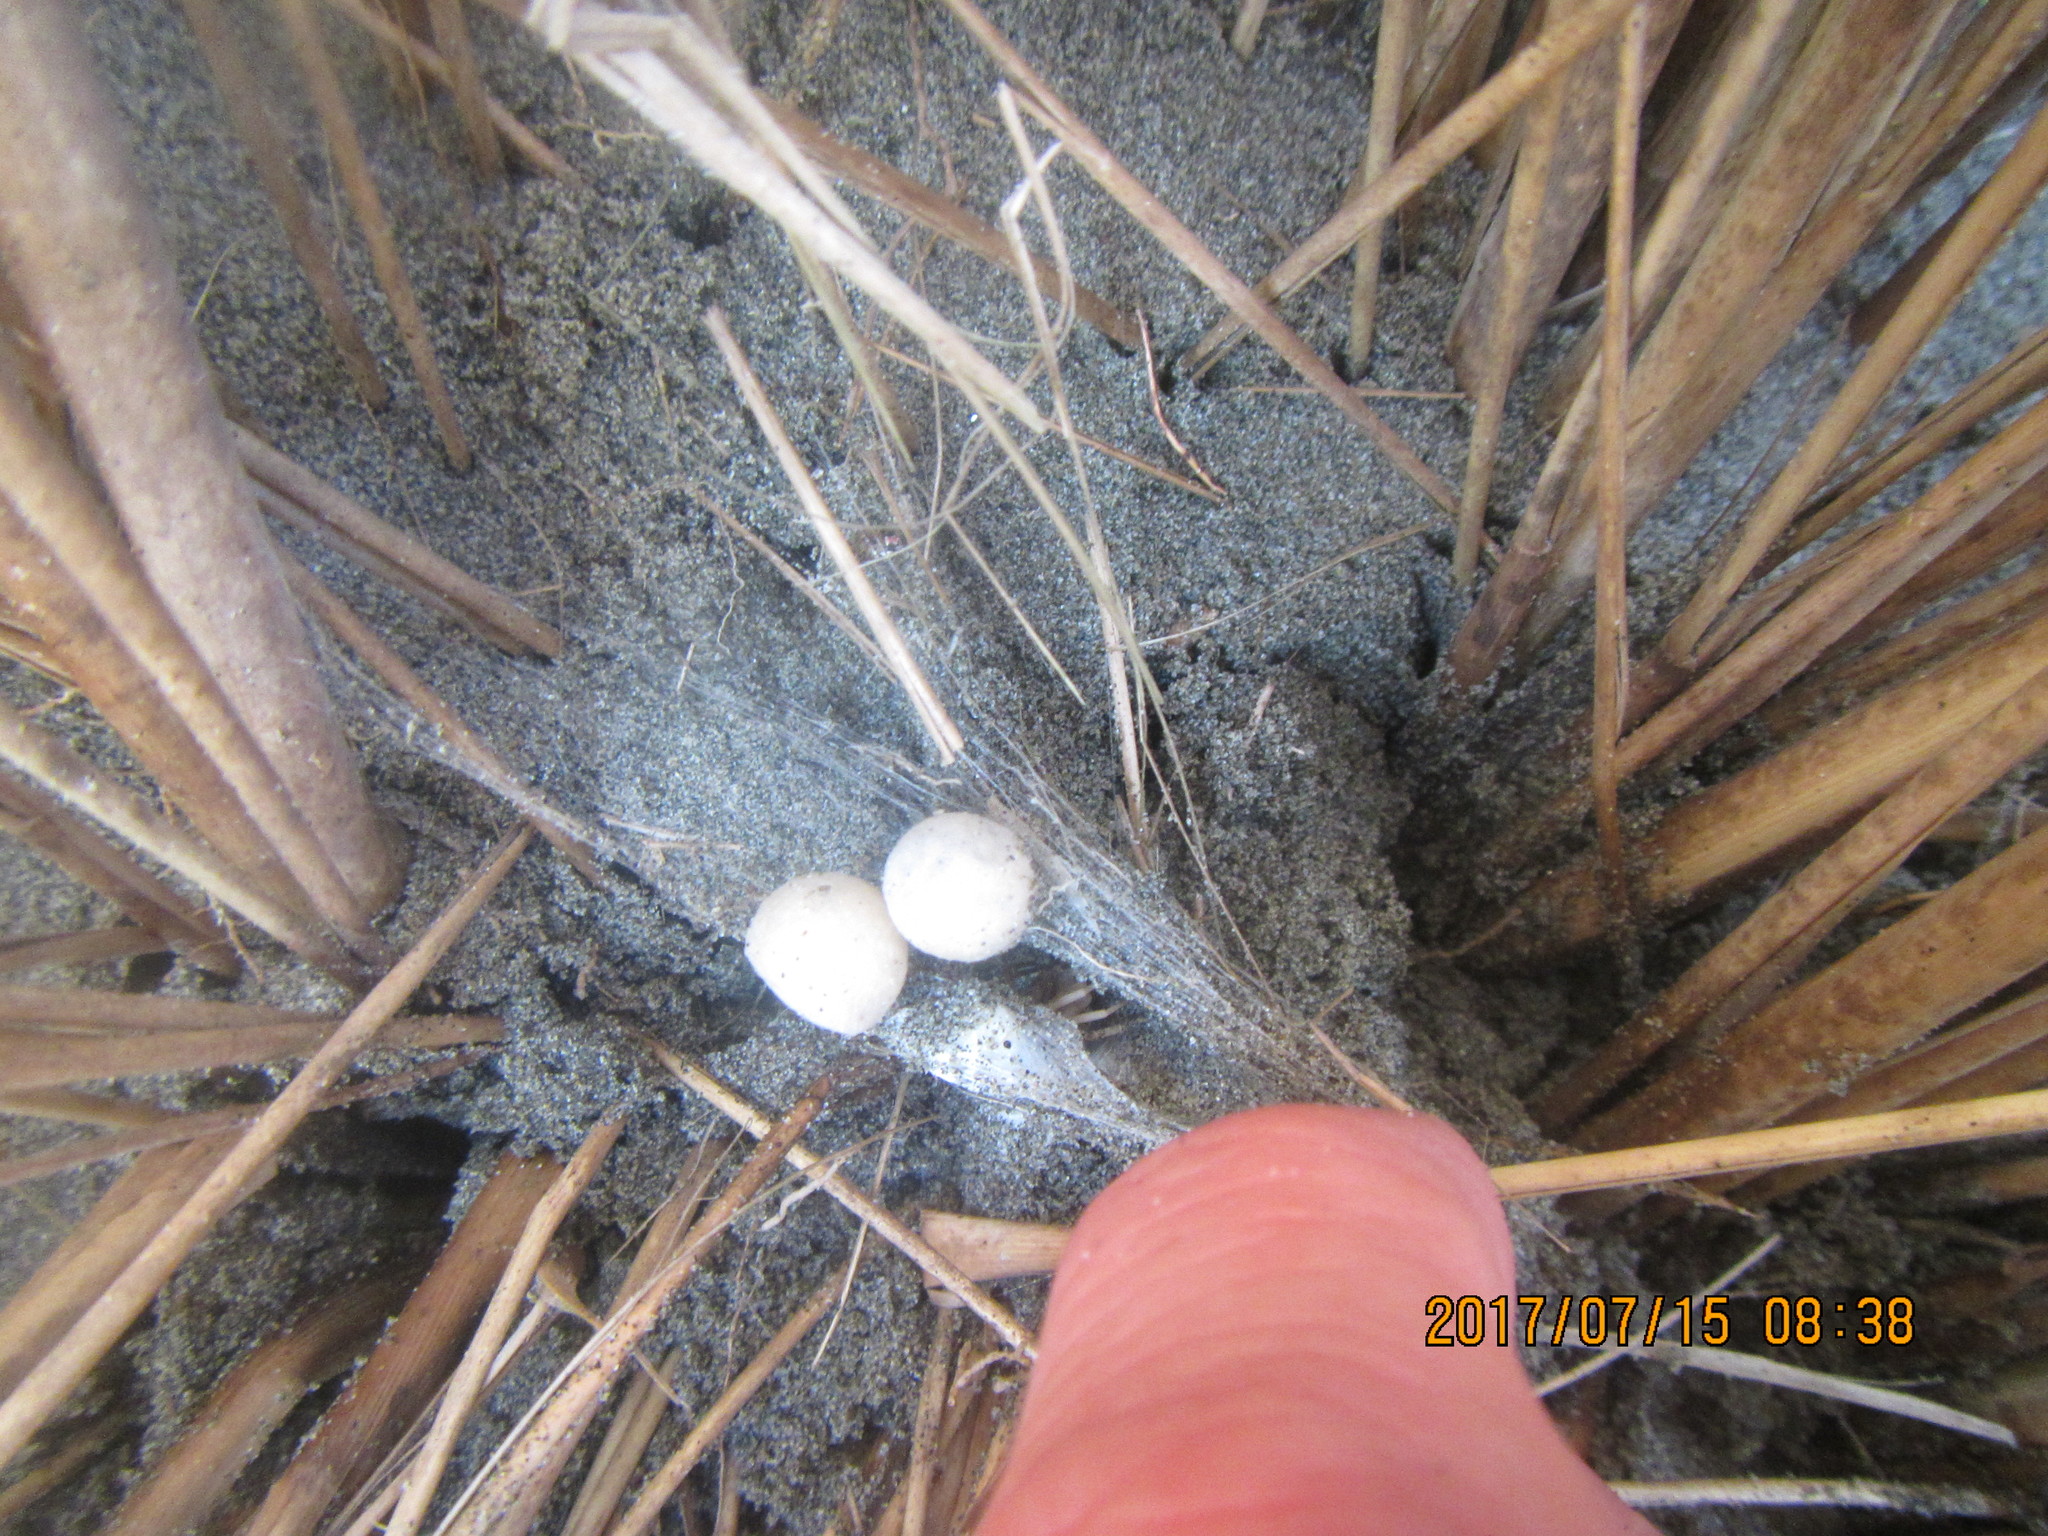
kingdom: Animalia
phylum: Arthropoda
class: Arachnida
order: Araneae
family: Thomisidae
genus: Sidymella
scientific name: Sidymella trapezia
